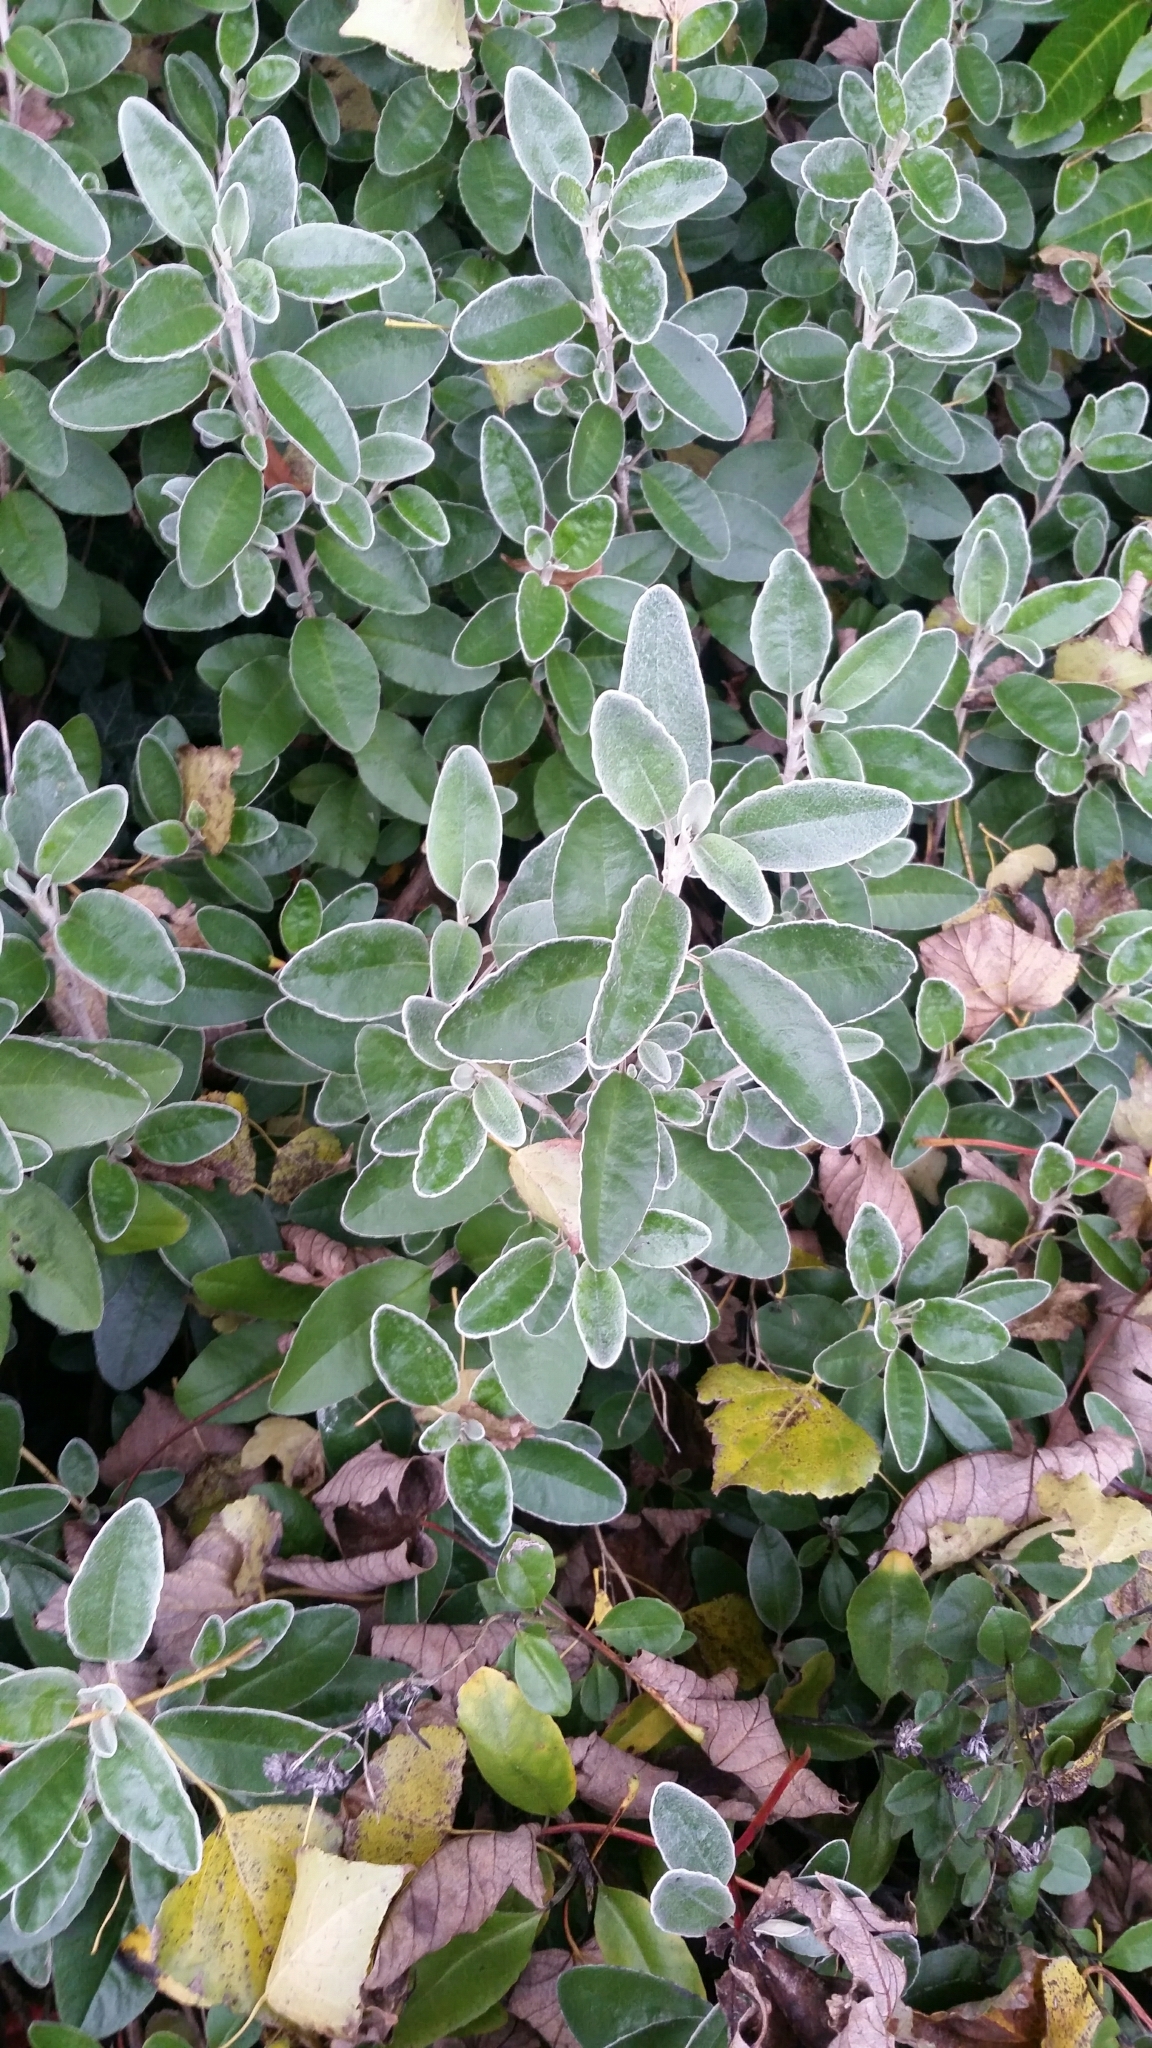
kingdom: Plantae
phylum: Tracheophyta
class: Magnoliopsida
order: Asterales
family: Asteraceae
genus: Brachyglottis
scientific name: Brachyglottis jubar
